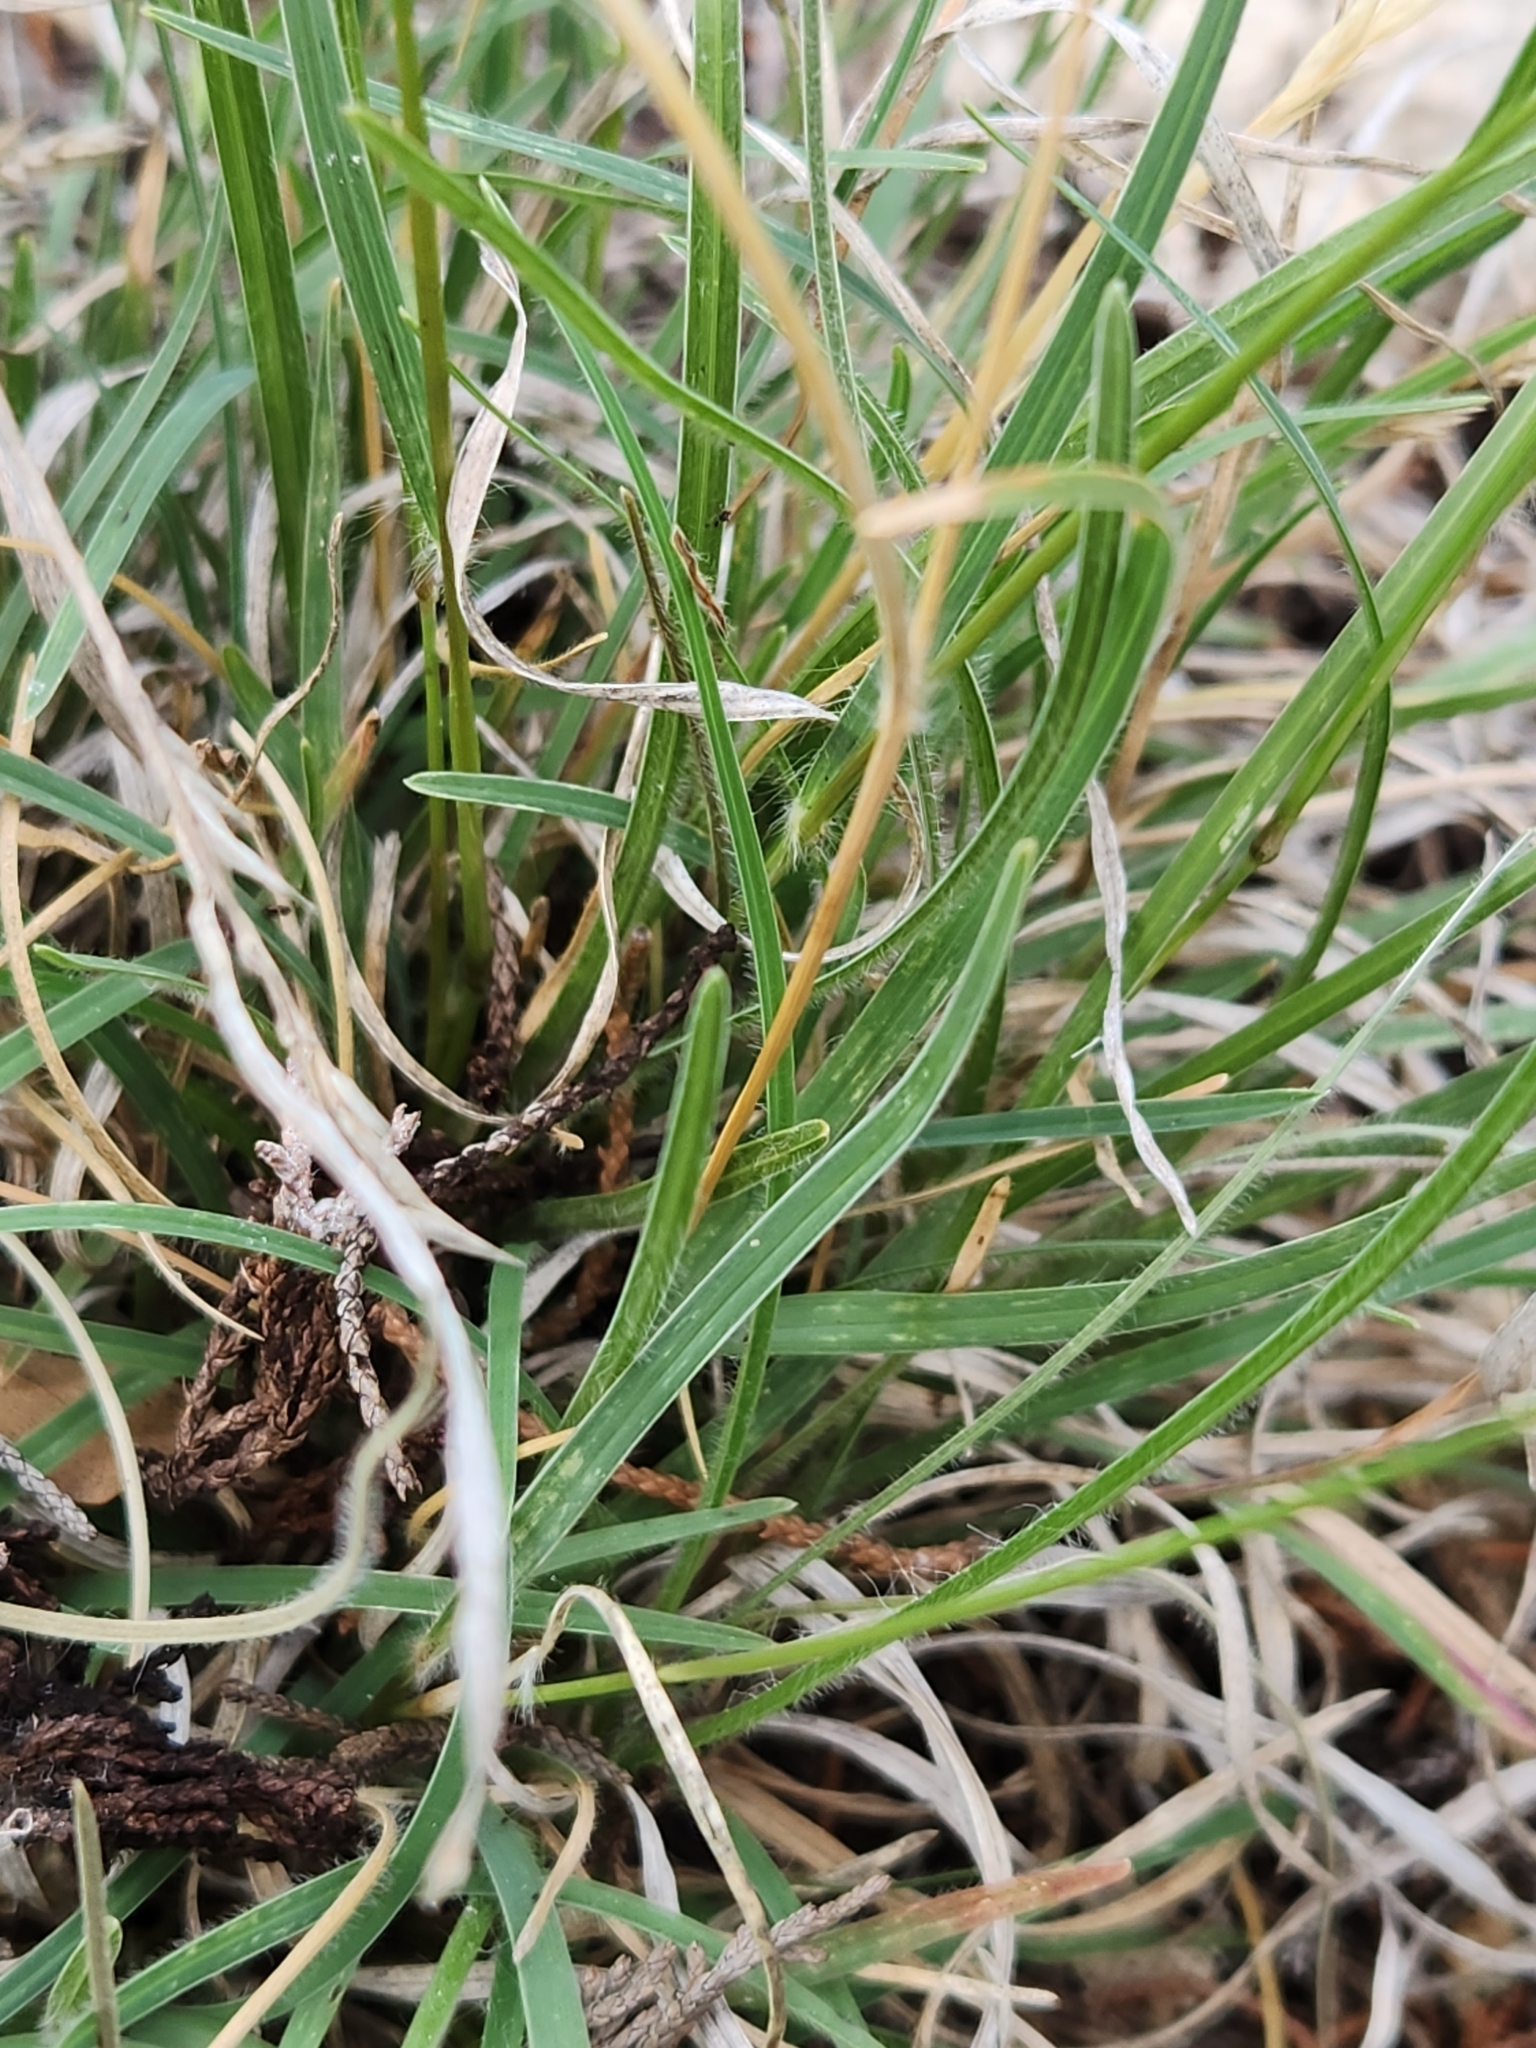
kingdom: Plantae
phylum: Tracheophyta
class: Liliopsida
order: Poales
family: Poaceae
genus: Erioneuron
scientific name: Erioneuron pilosum
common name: Hairy woolly grass
